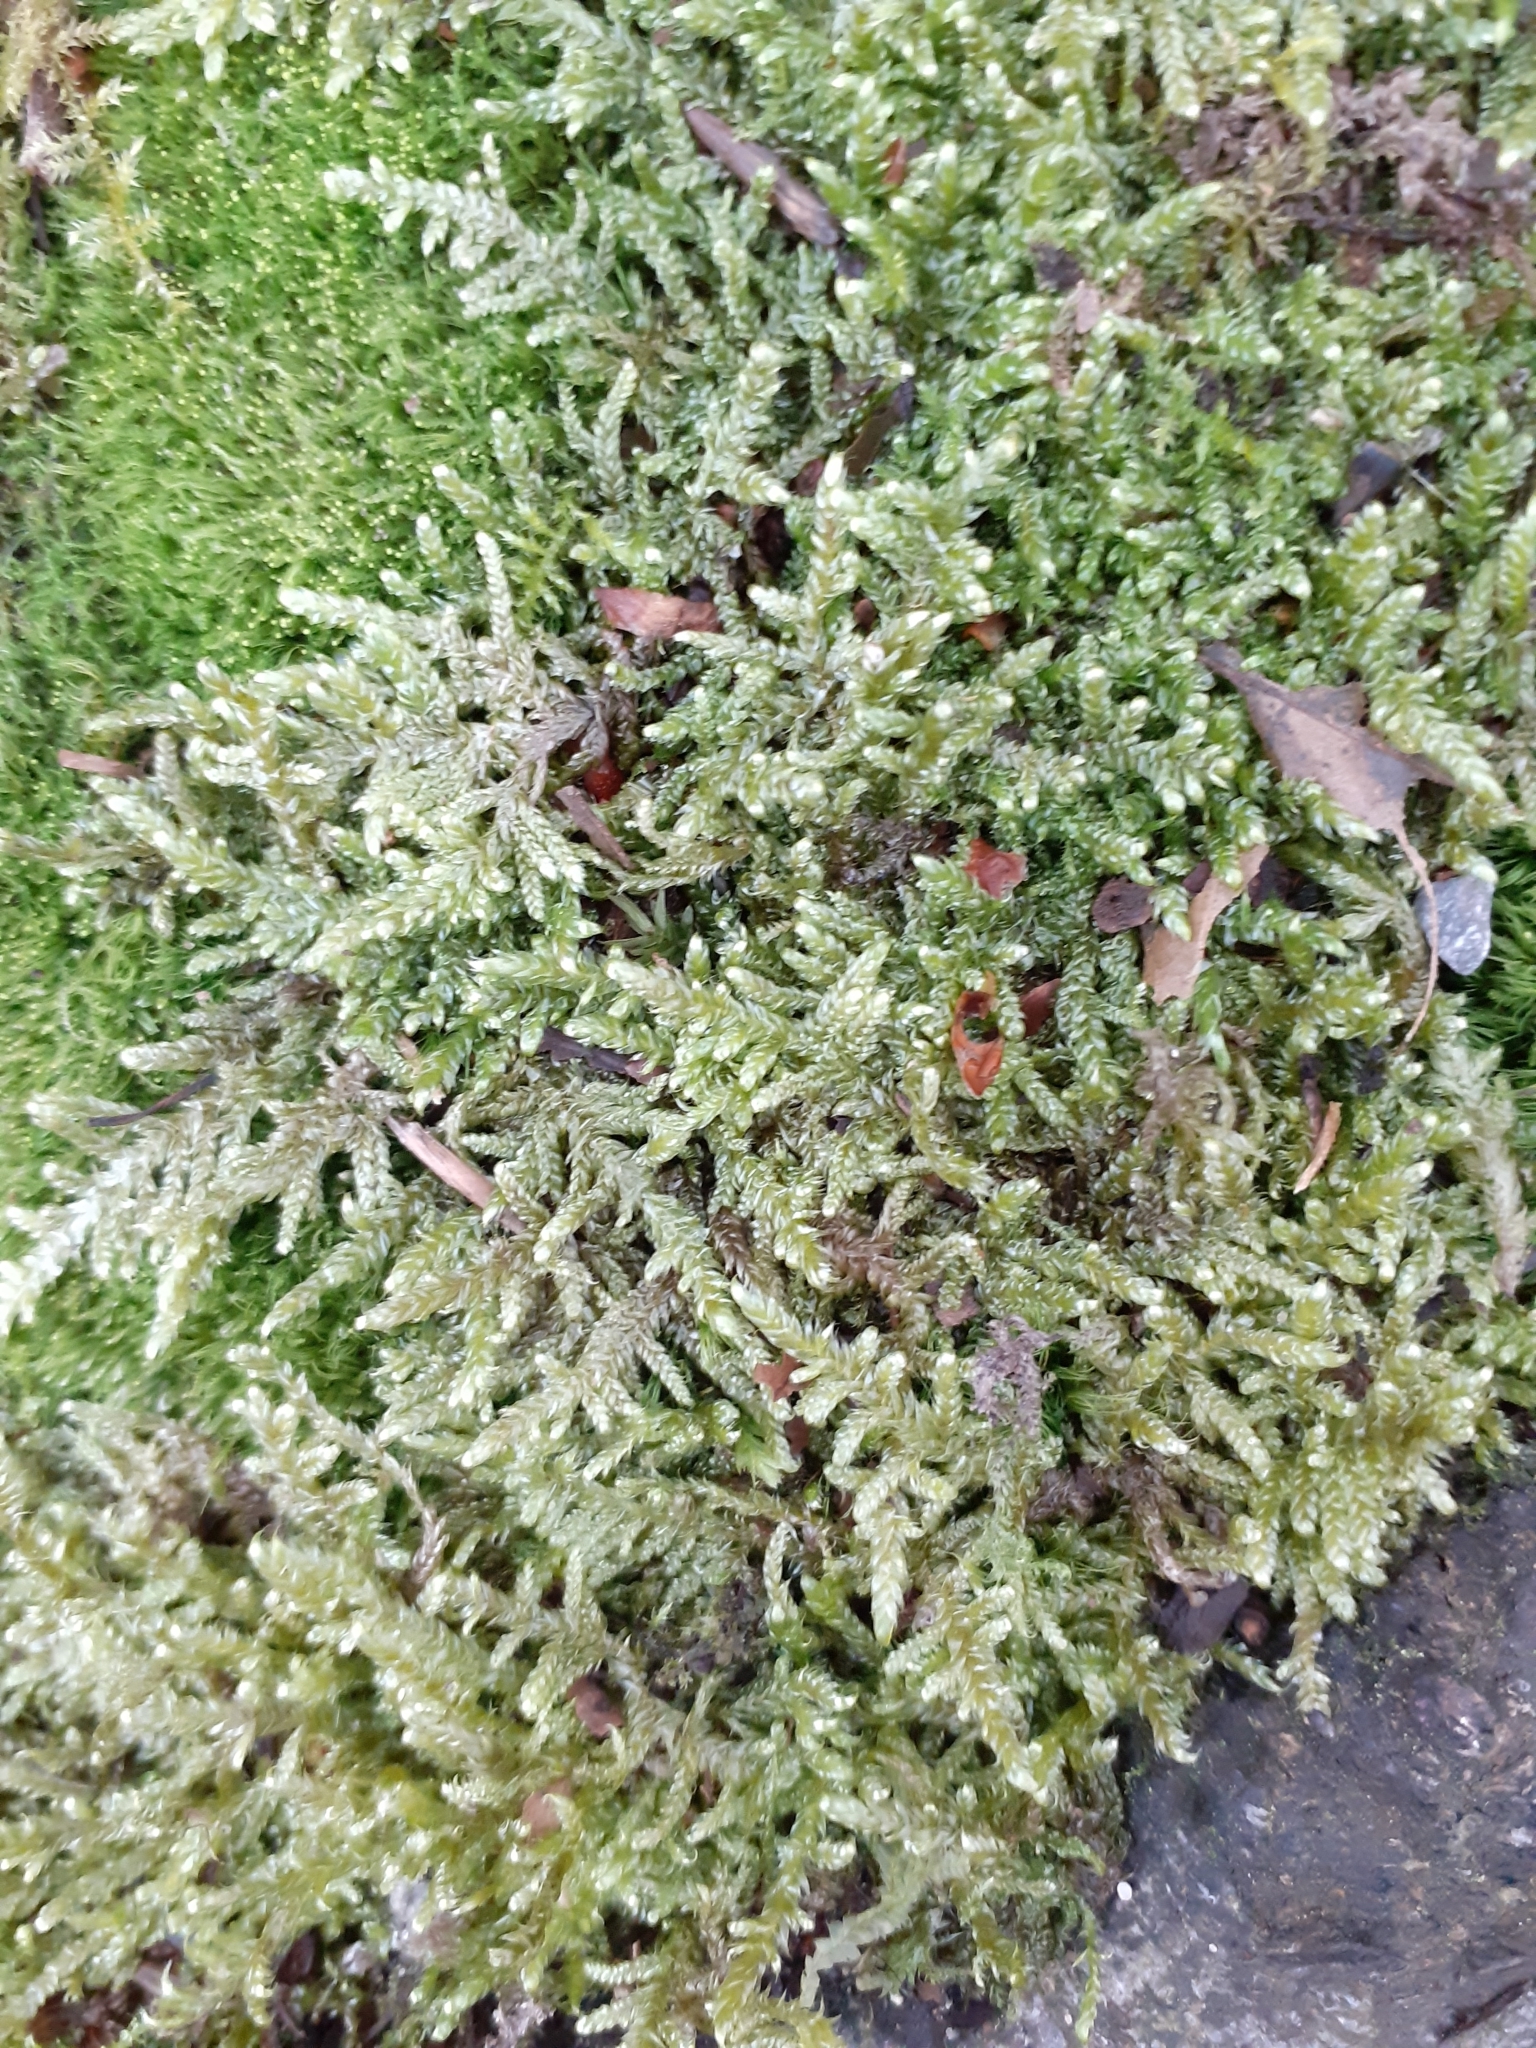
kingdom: Plantae
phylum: Bryophyta
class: Bryopsida
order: Hypnales
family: Hypnaceae
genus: Hypnum
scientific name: Hypnum cupressiforme
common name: Cypress-leaved plait-moss
